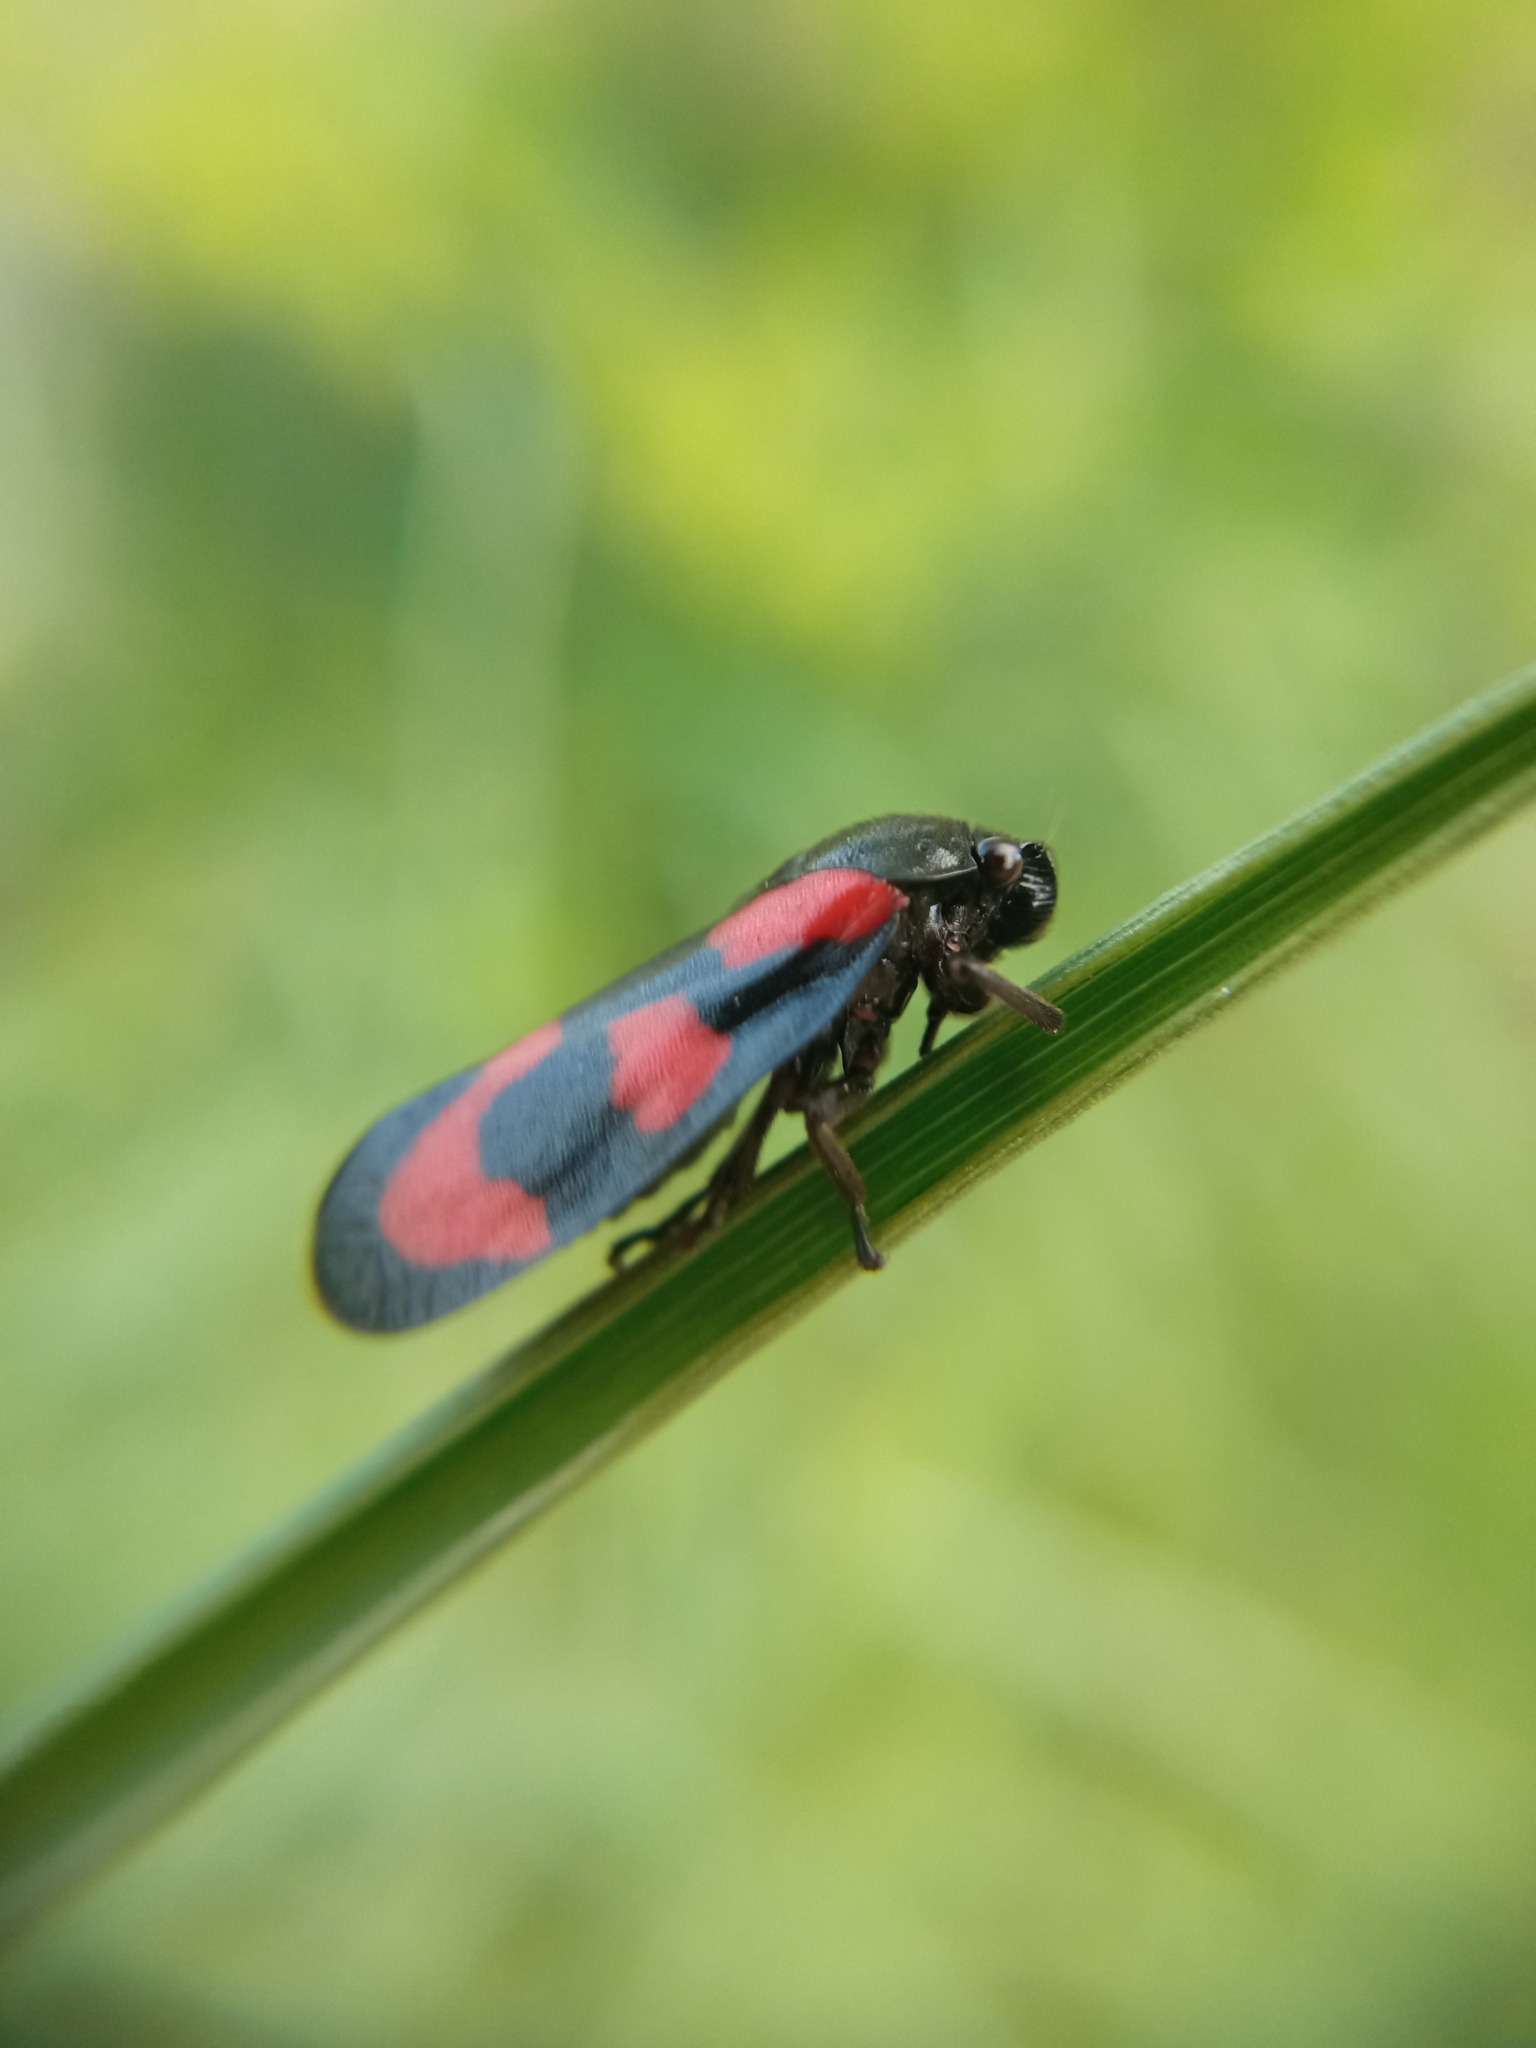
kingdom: Animalia
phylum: Arthropoda
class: Insecta
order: Hemiptera
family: Cercopidae
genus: Cercopis
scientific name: Cercopis vulnerata
